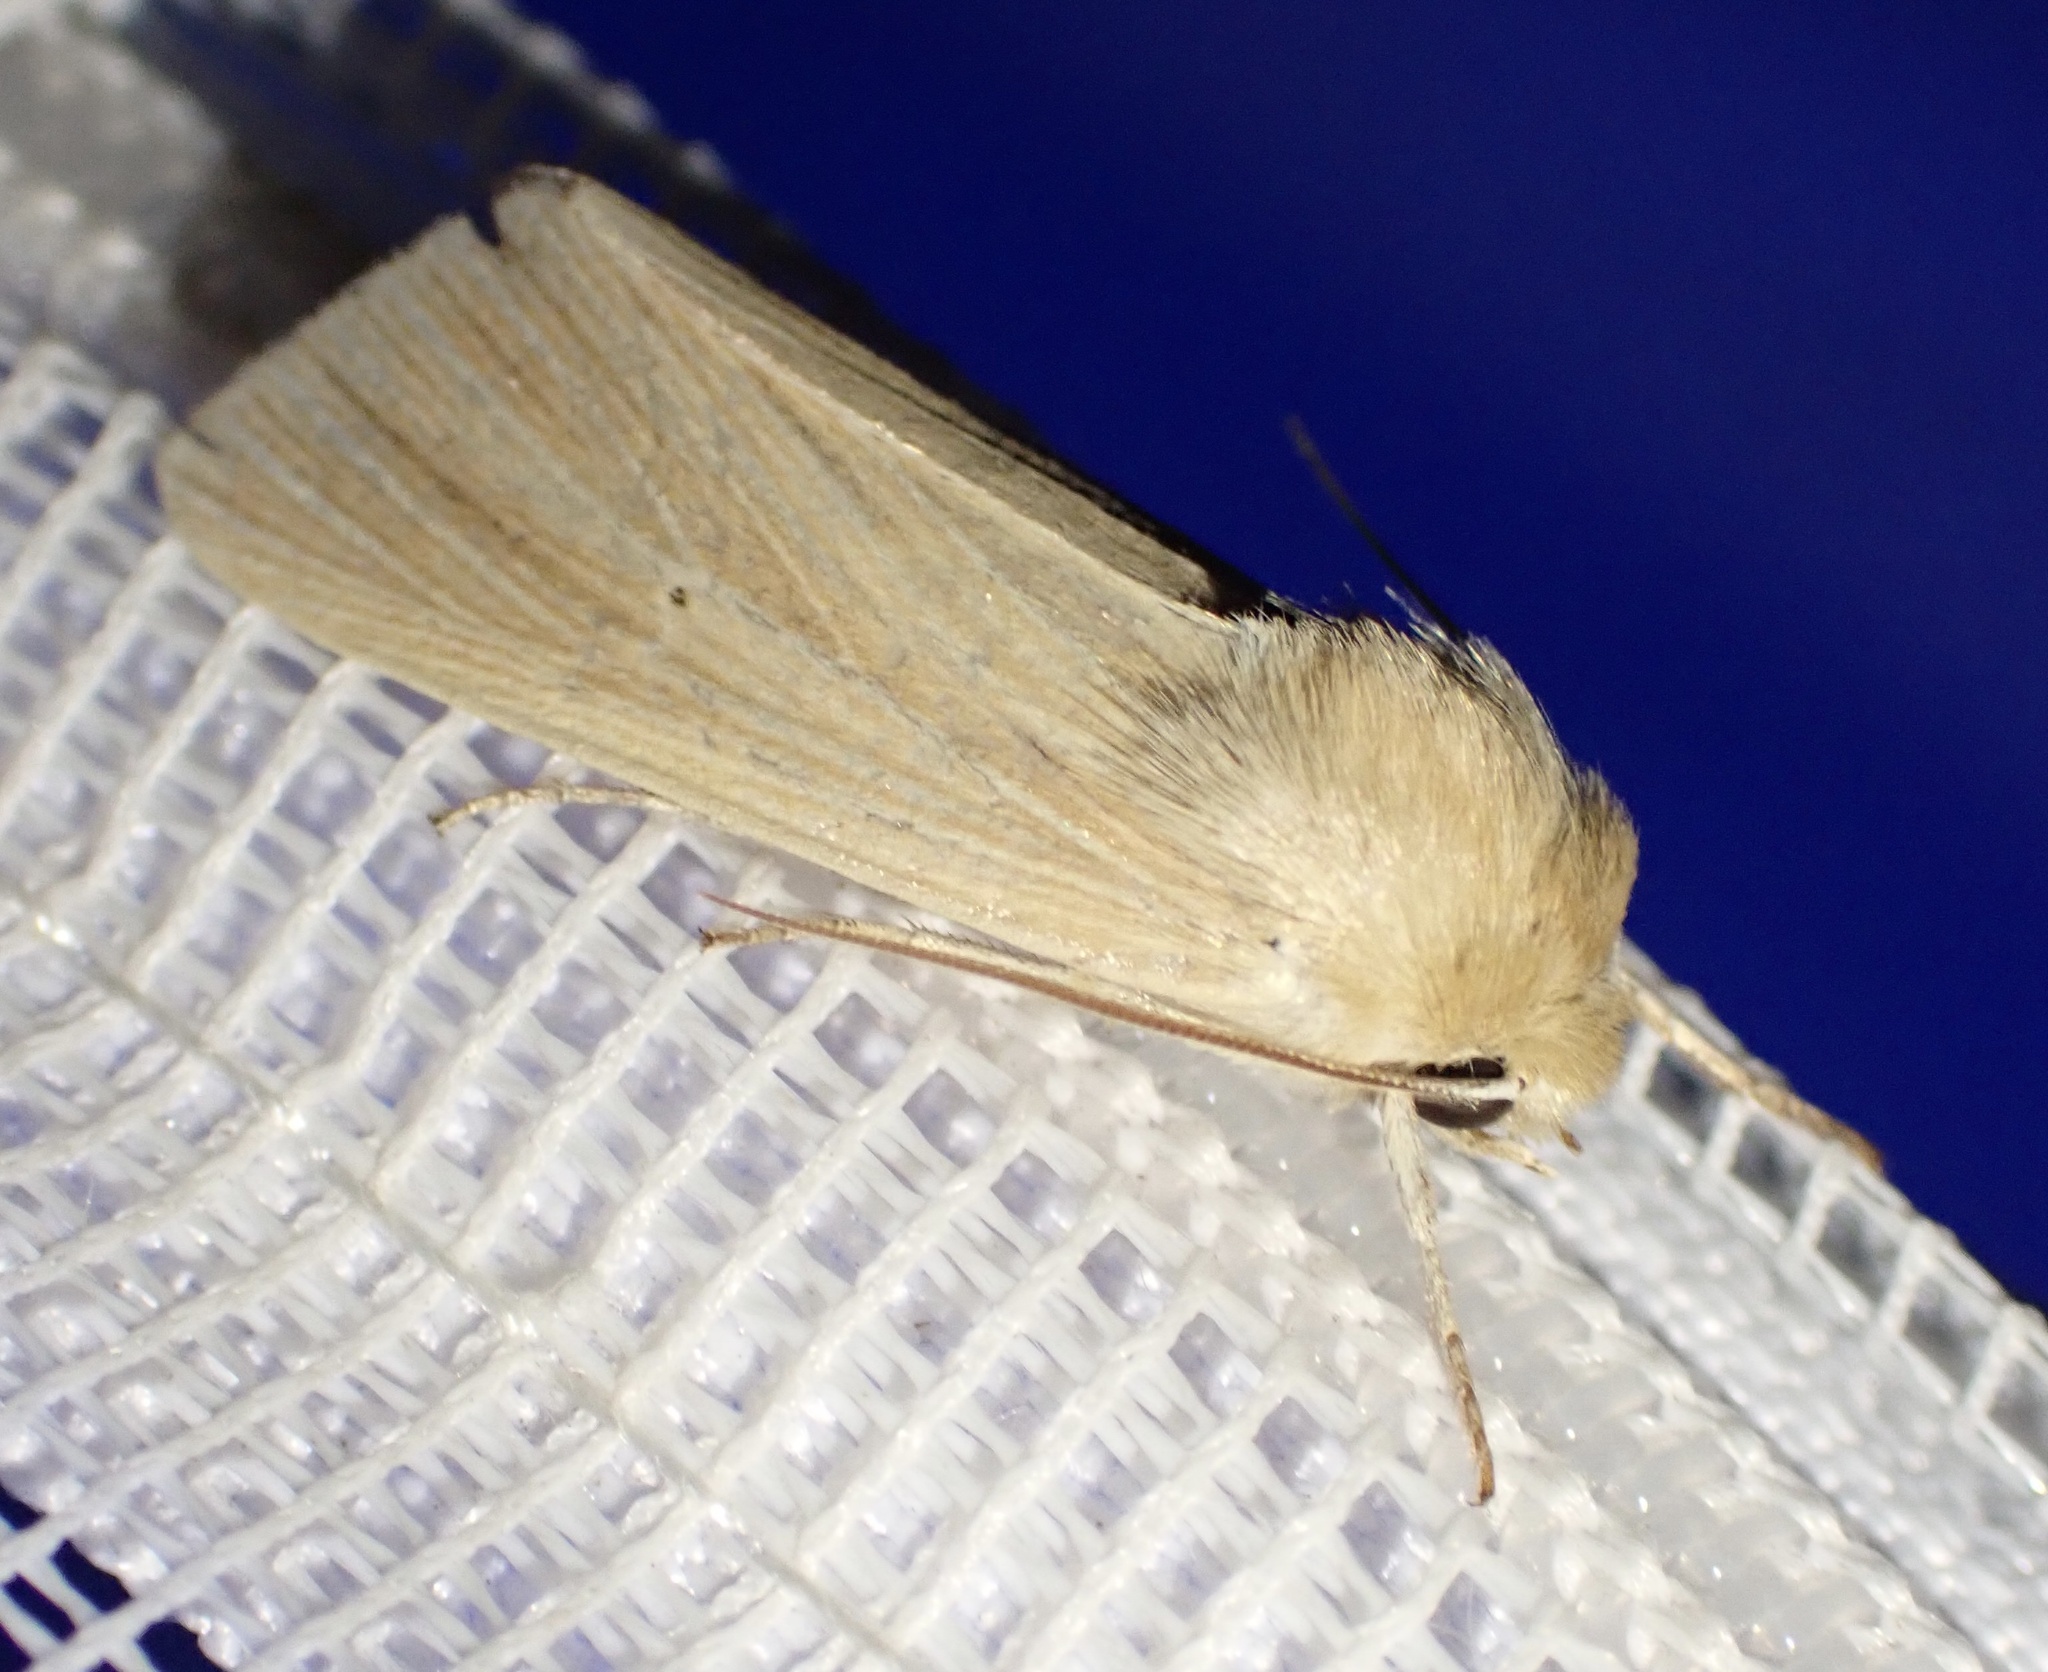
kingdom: Animalia
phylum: Arthropoda
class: Insecta
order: Lepidoptera
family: Noctuidae
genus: Mythimna
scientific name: Mythimna pallens
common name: Common wainscot
